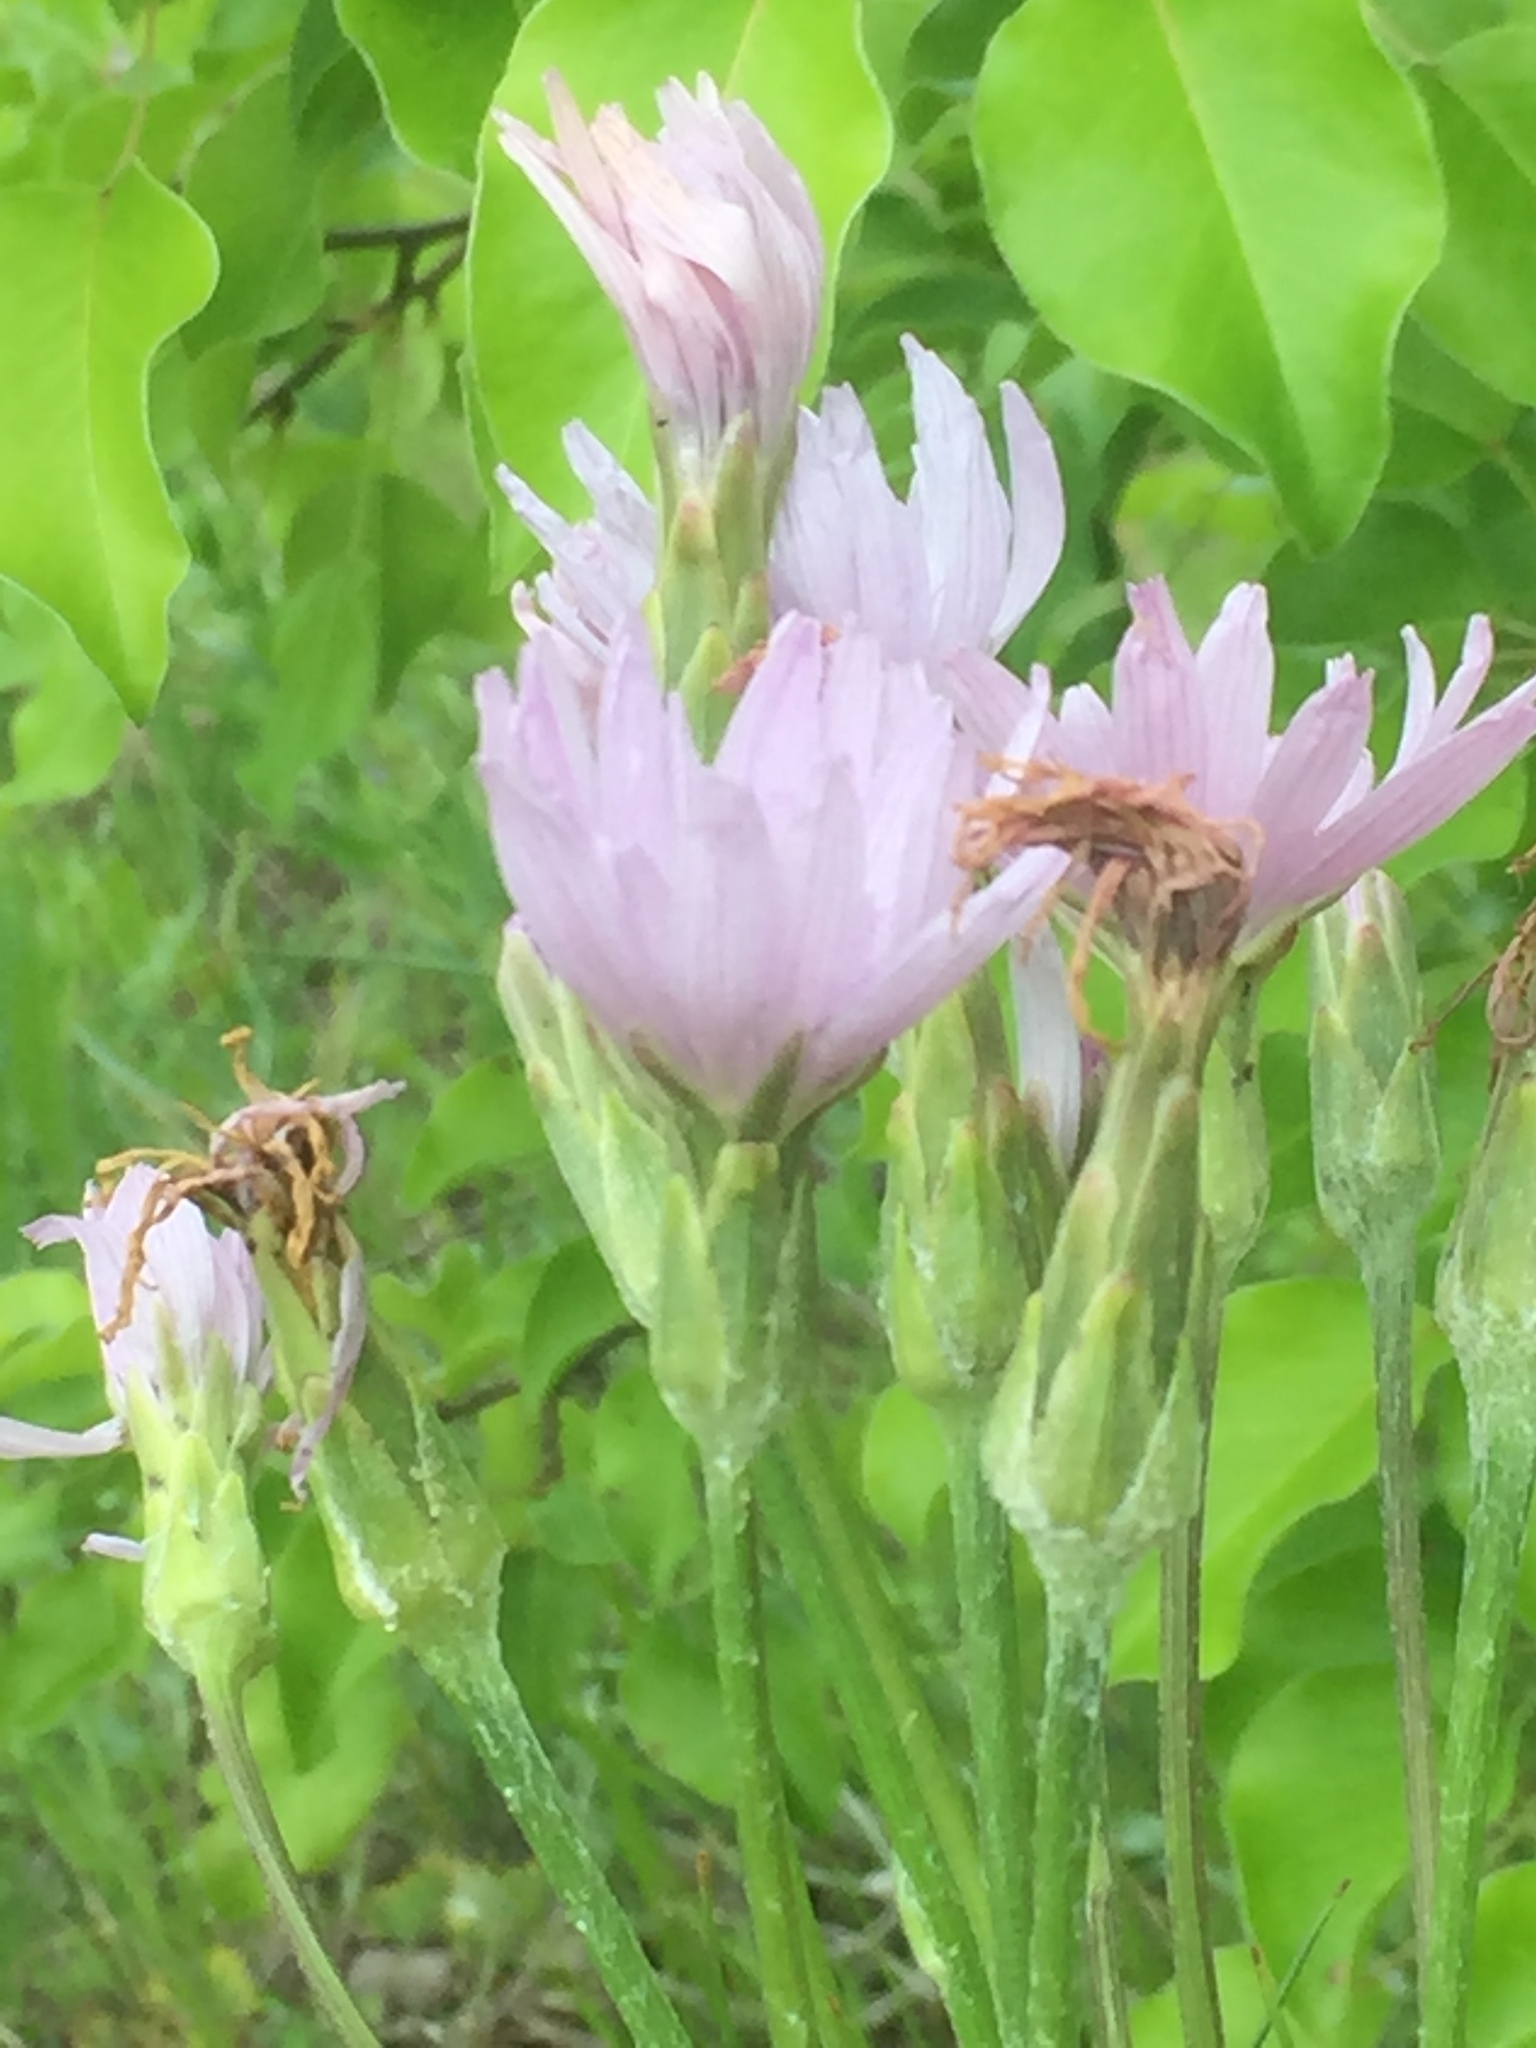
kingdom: Plantae
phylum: Tracheophyta
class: Magnoliopsida
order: Asterales
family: Asteraceae
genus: Scorzonera
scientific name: Scorzonera purpurea
